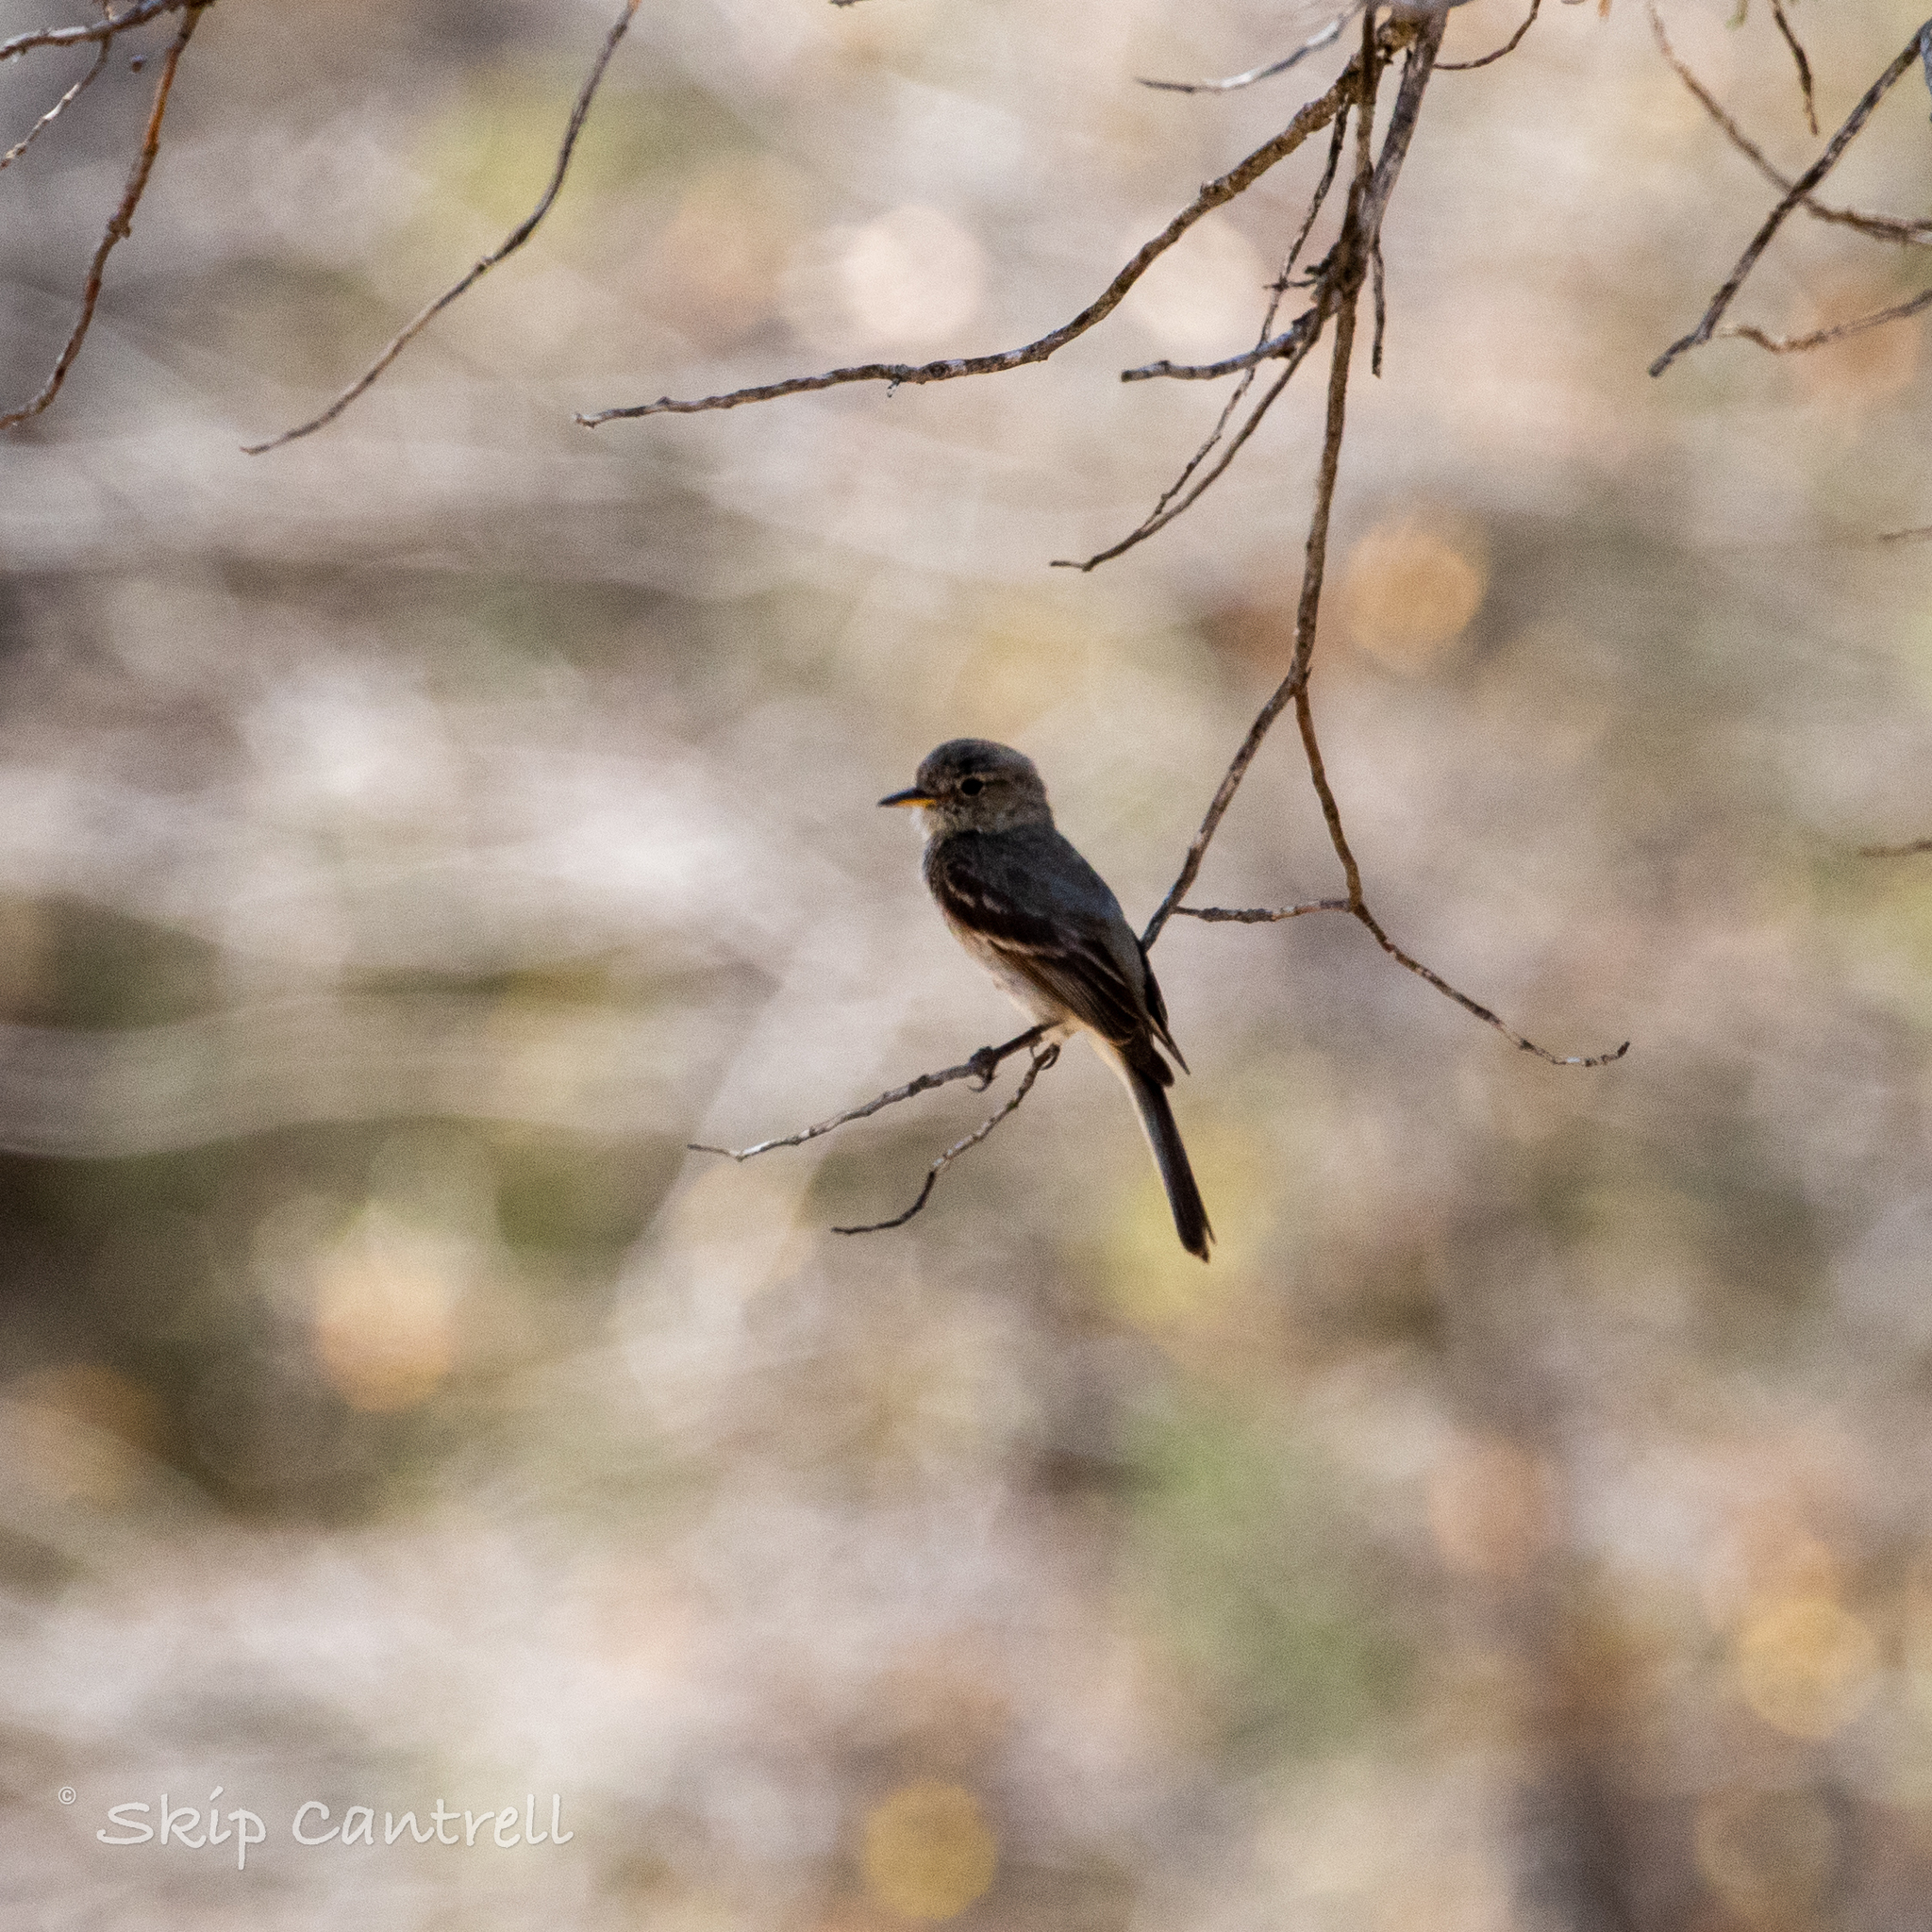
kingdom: Animalia
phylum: Chordata
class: Aves
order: Passeriformes
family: Tyrannidae
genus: Empidonax
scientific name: Empidonax wrightii
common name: Gray flycatcher
